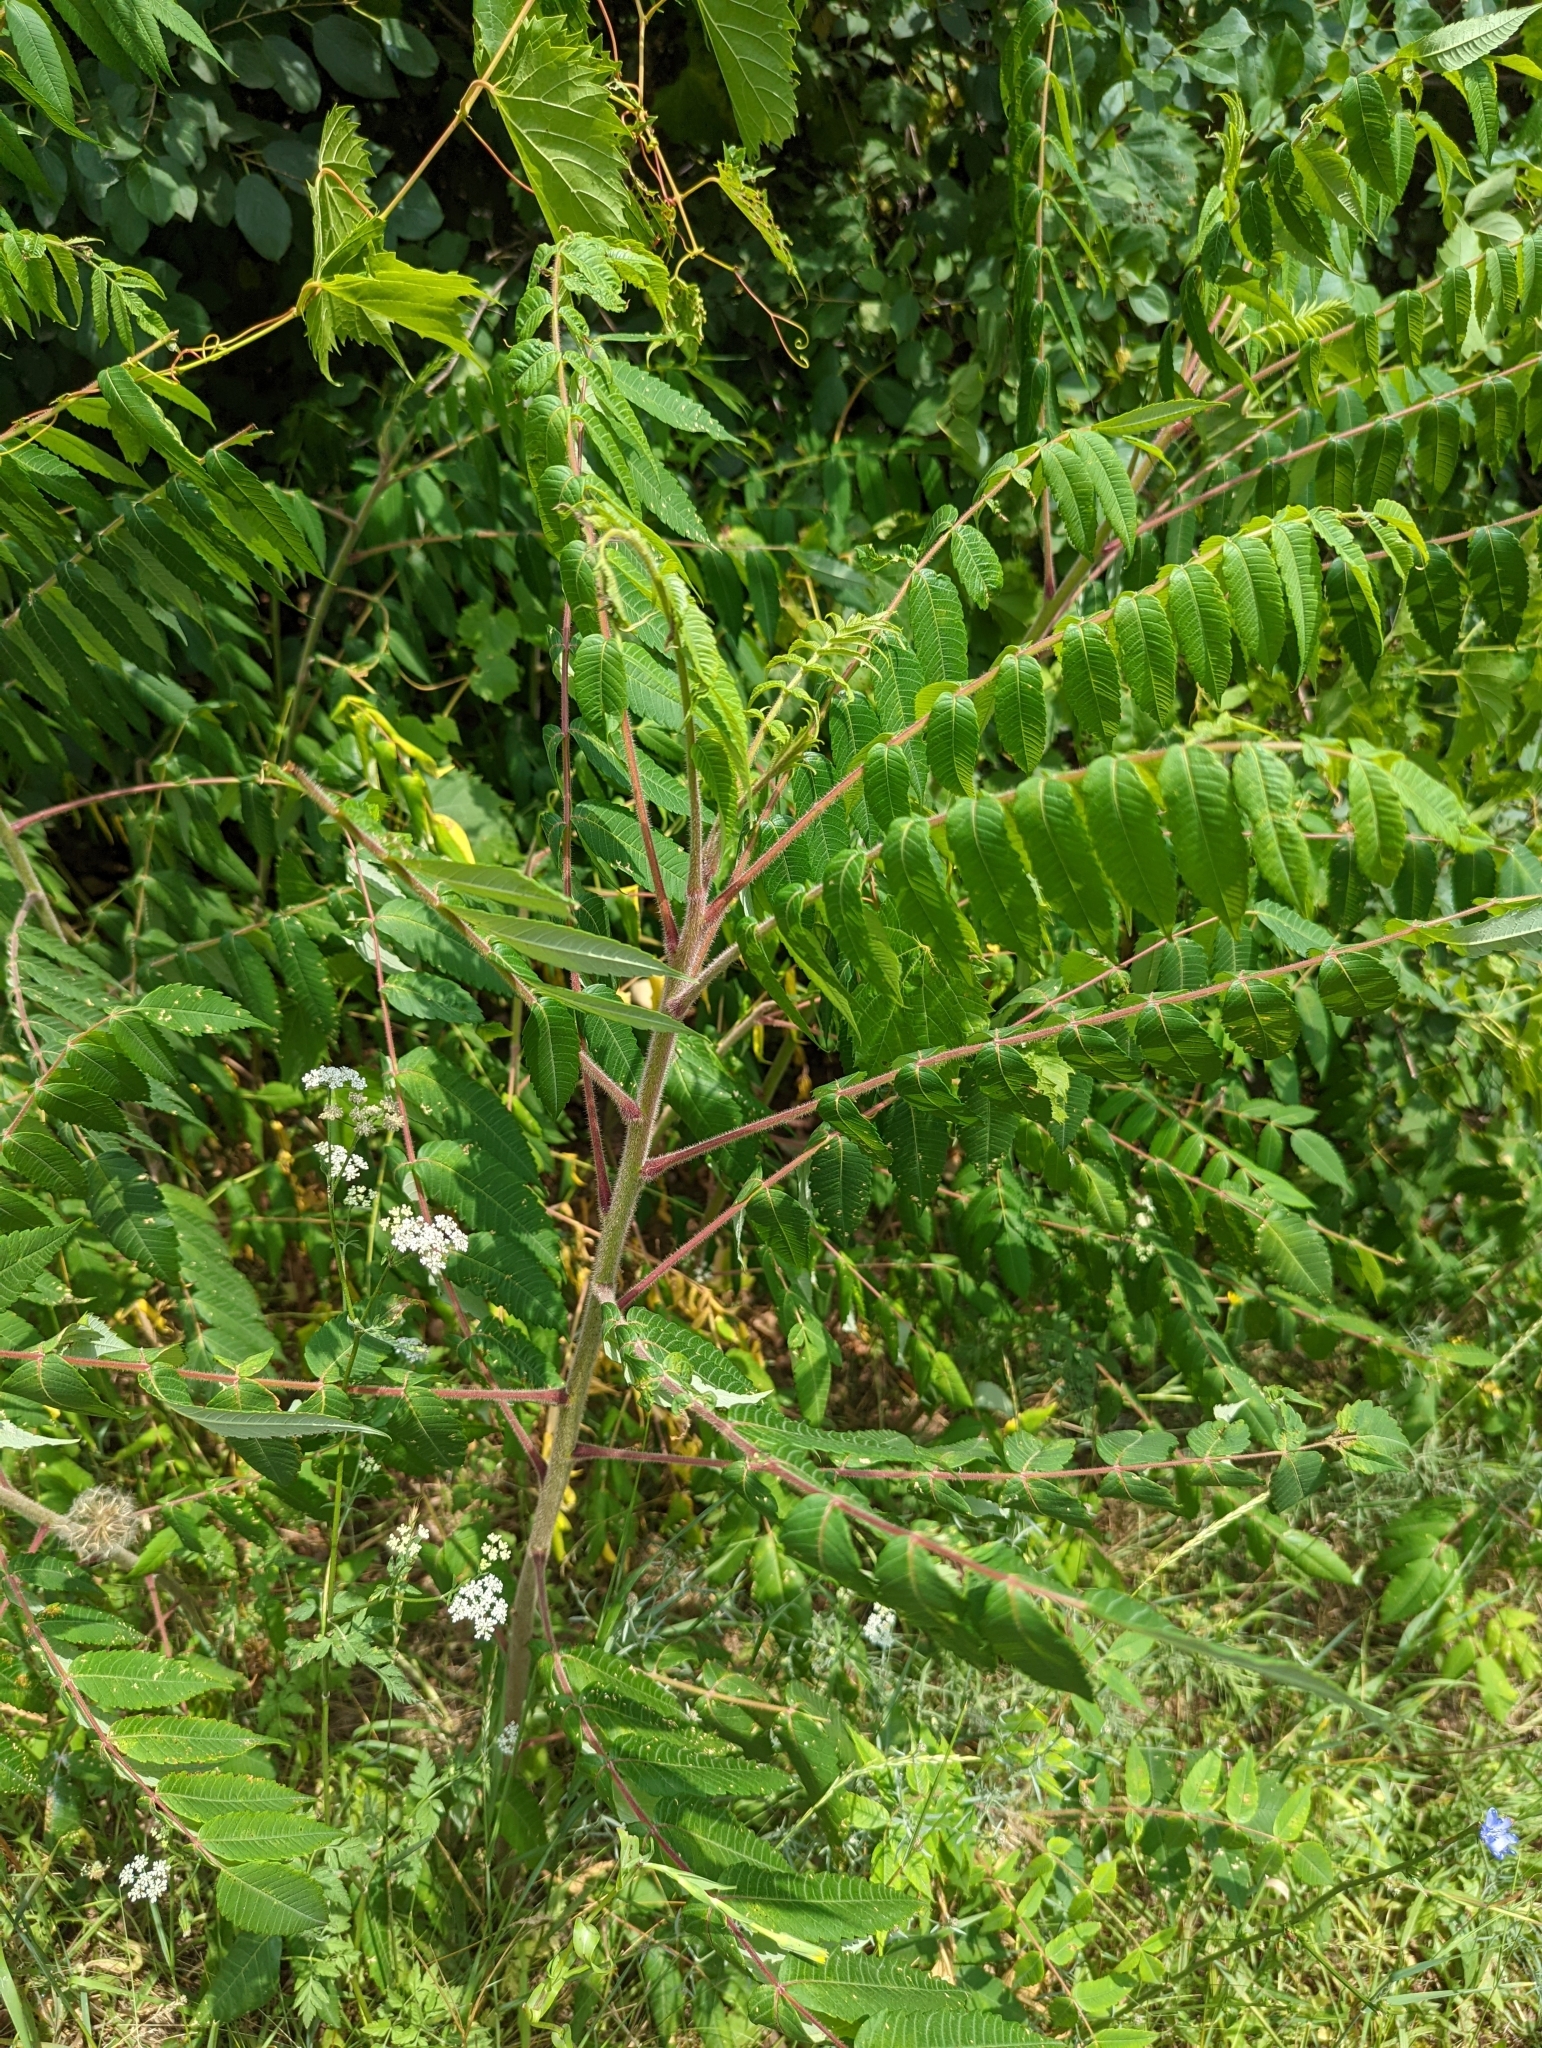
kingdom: Plantae
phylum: Tracheophyta
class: Magnoliopsida
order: Sapindales
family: Anacardiaceae
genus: Rhus
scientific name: Rhus typhina
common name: Staghorn sumac
